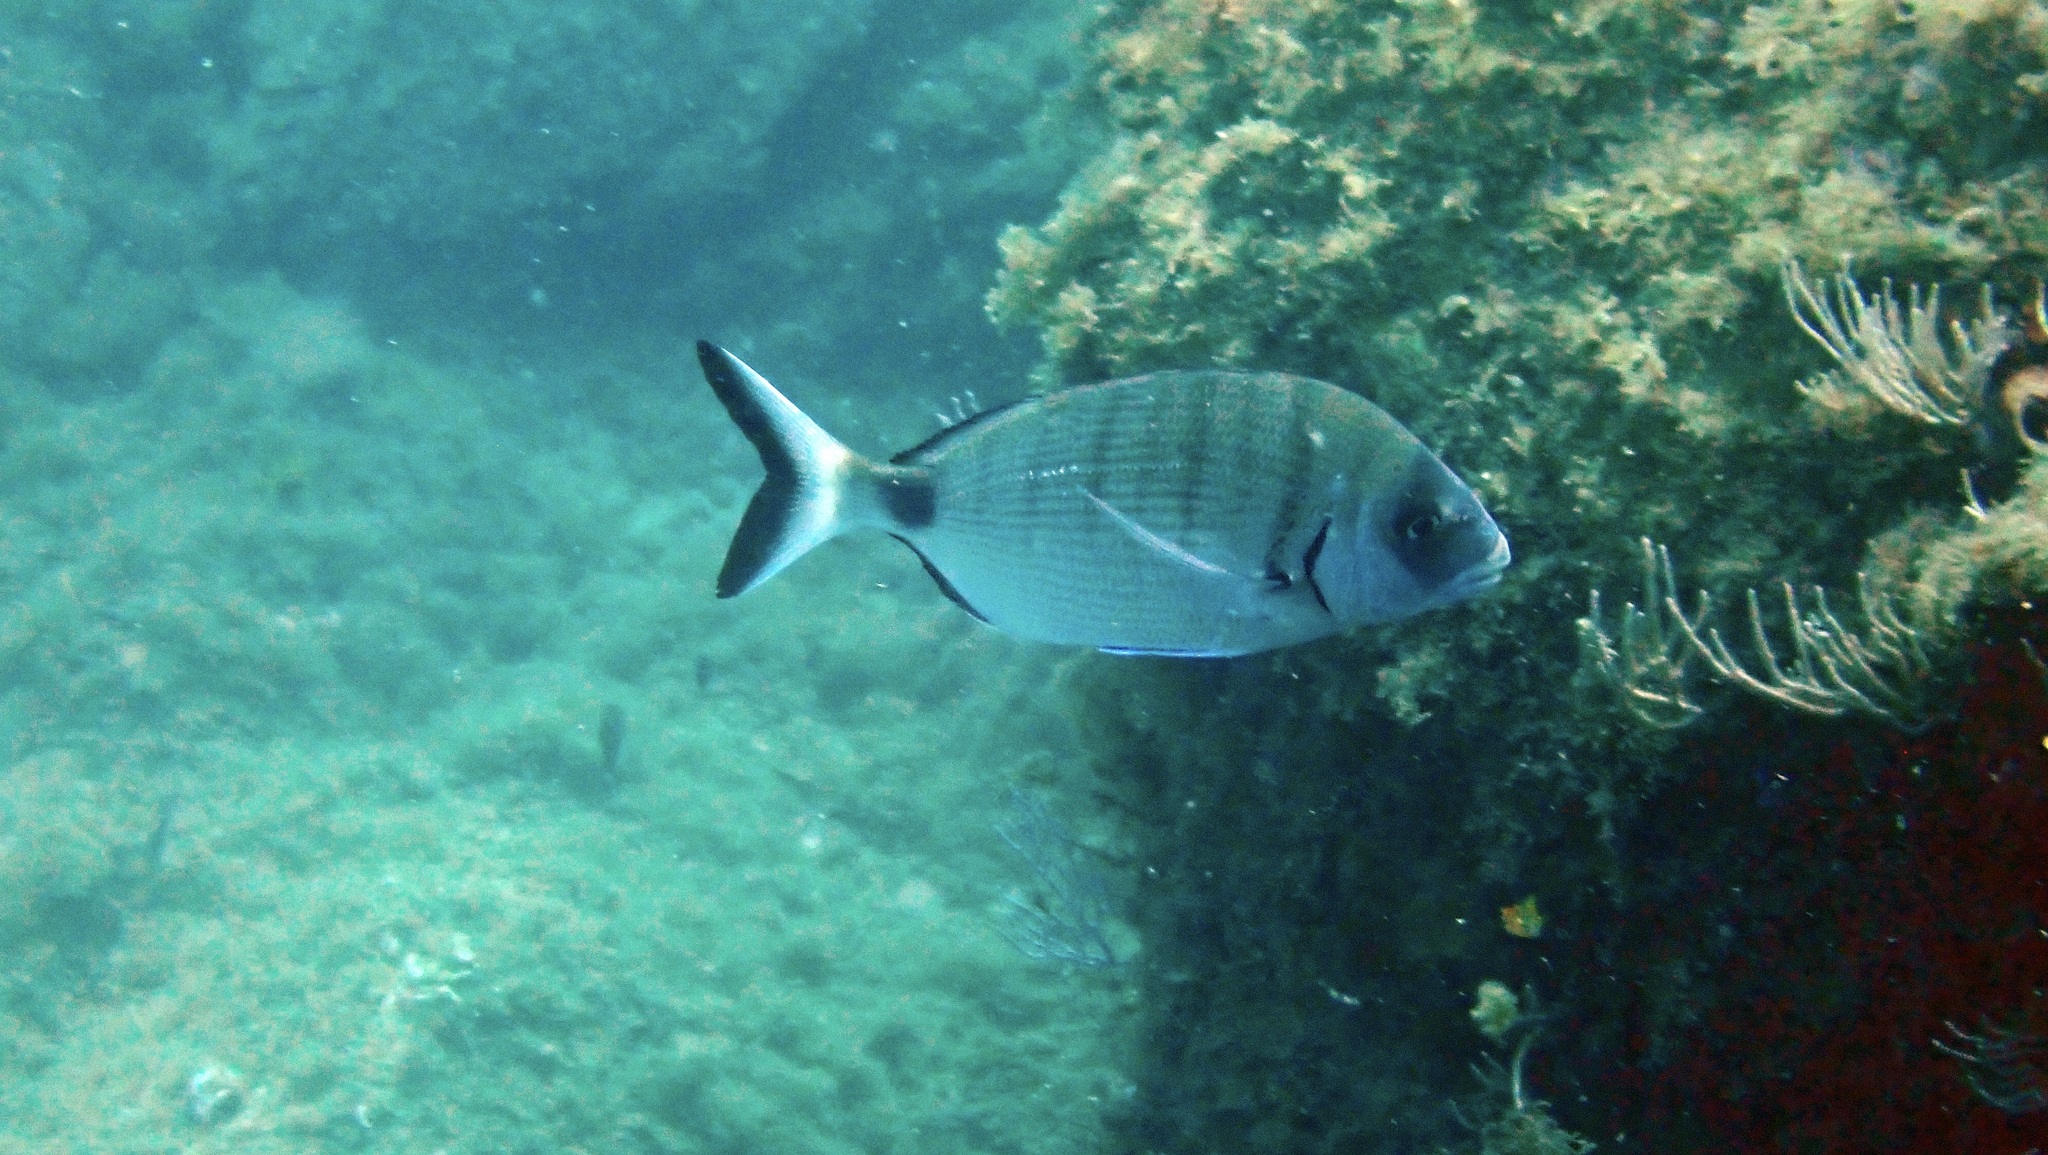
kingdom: Animalia
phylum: Chordata
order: Perciformes
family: Sparidae
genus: Diplodus
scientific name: Diplodus sargus
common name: White seabream
